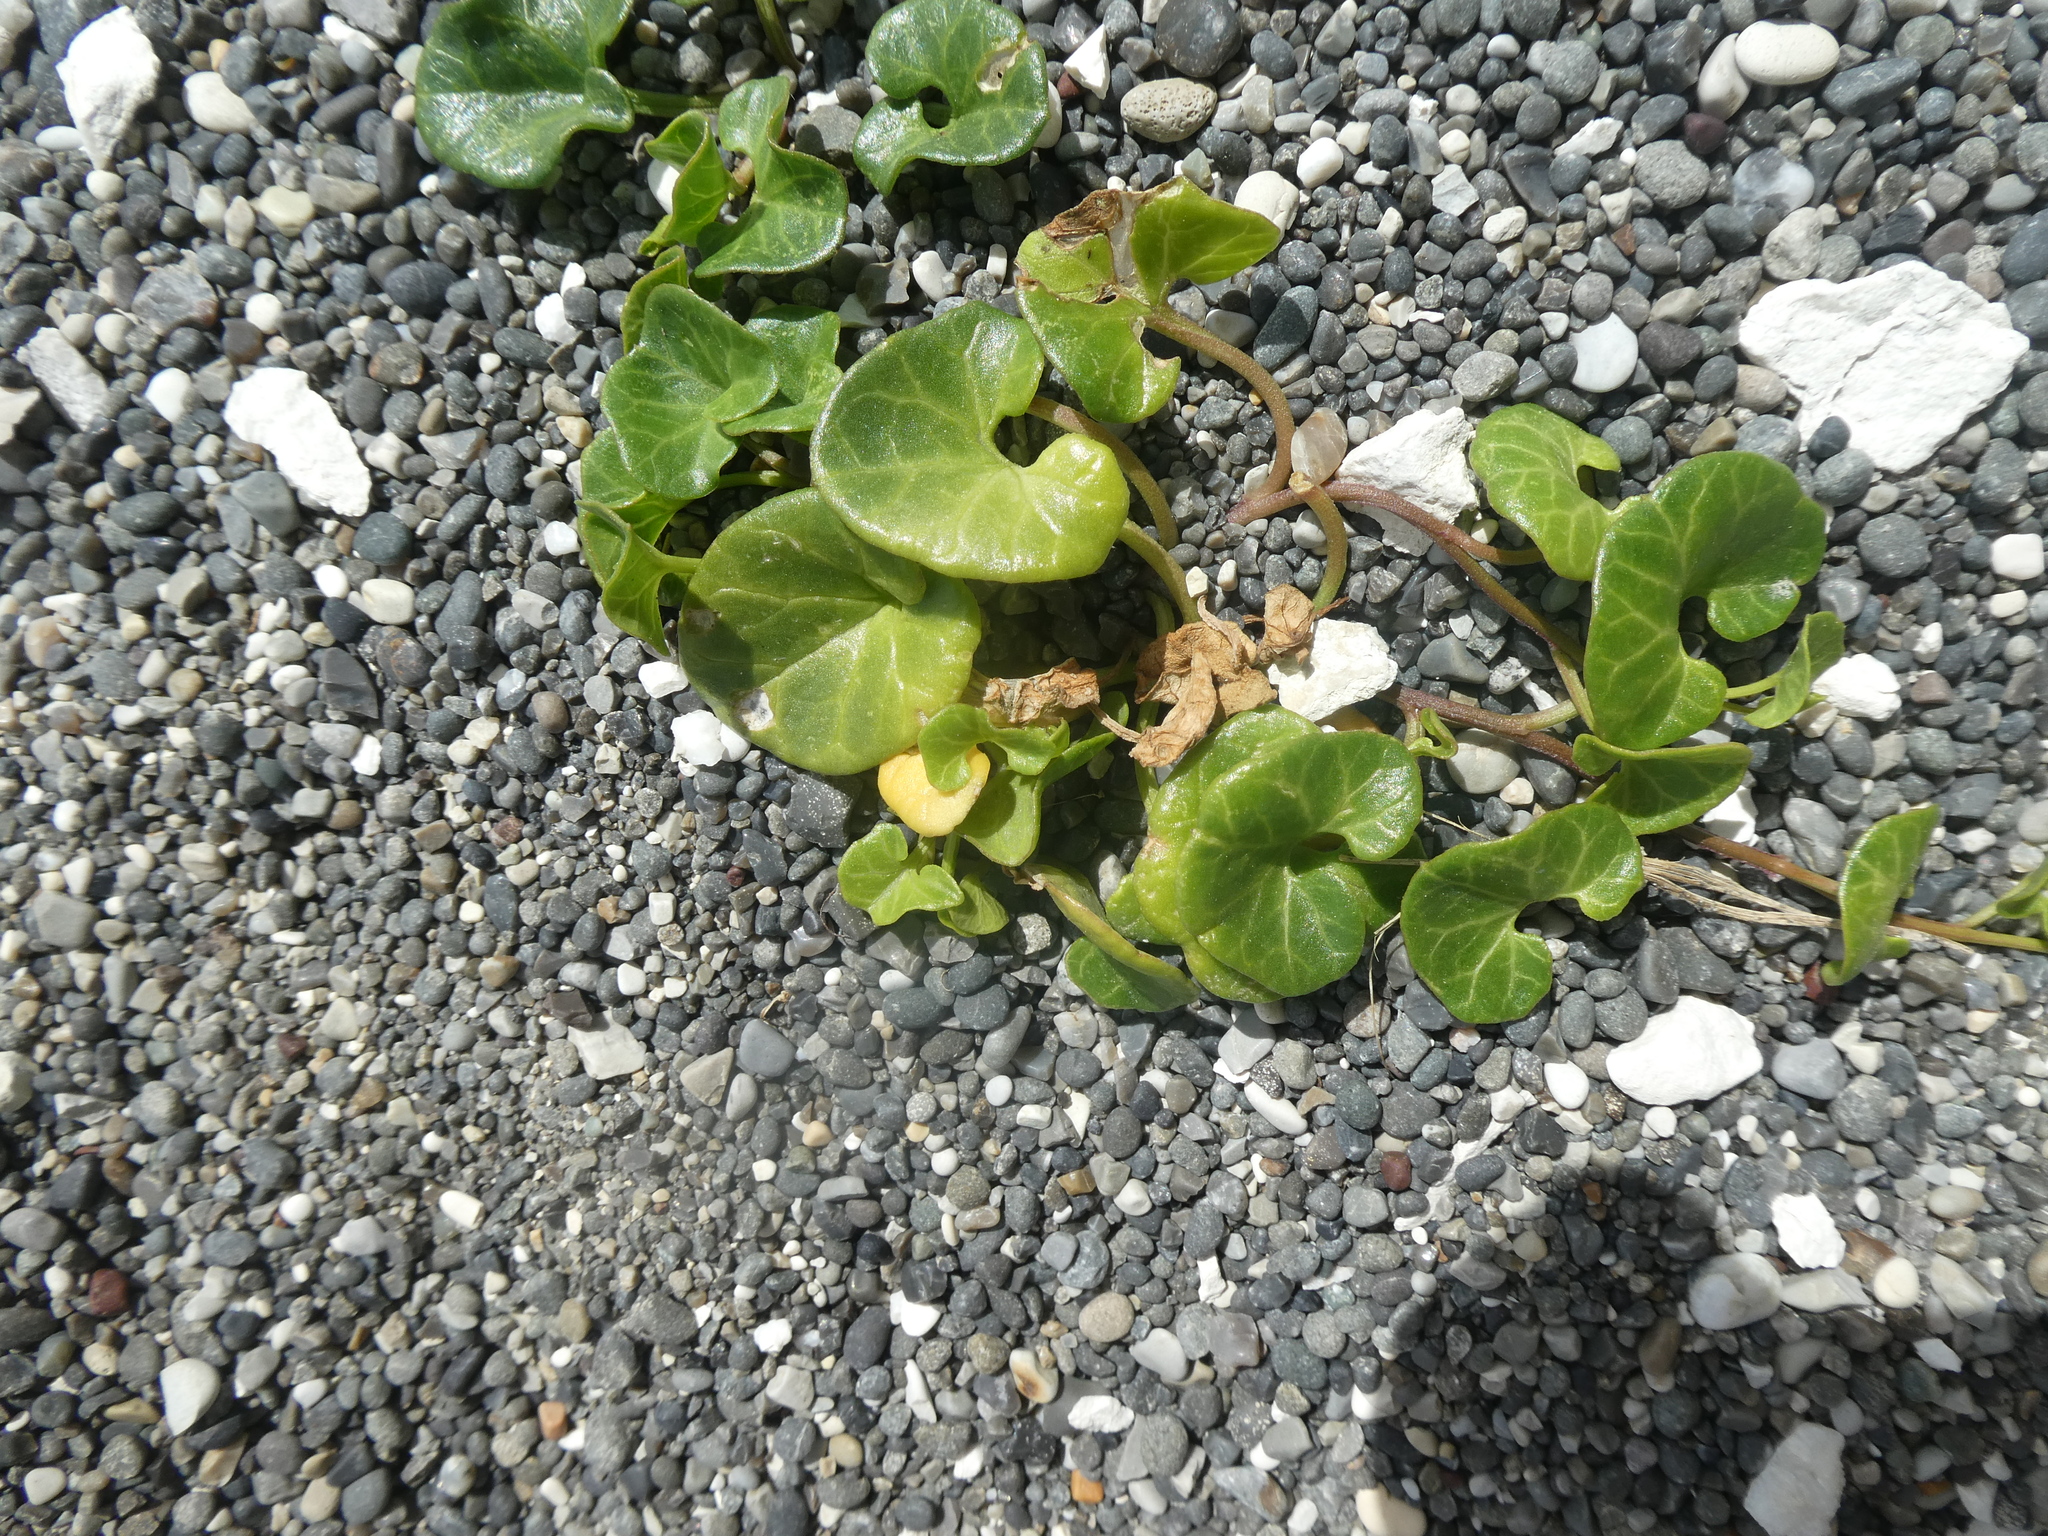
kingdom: Plantae
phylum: Tracheophyta
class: Magnoliopsida
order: Solanales
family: Convolvulaceae
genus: Calystegia
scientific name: Calystegia soldanella
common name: Sea bindweed
